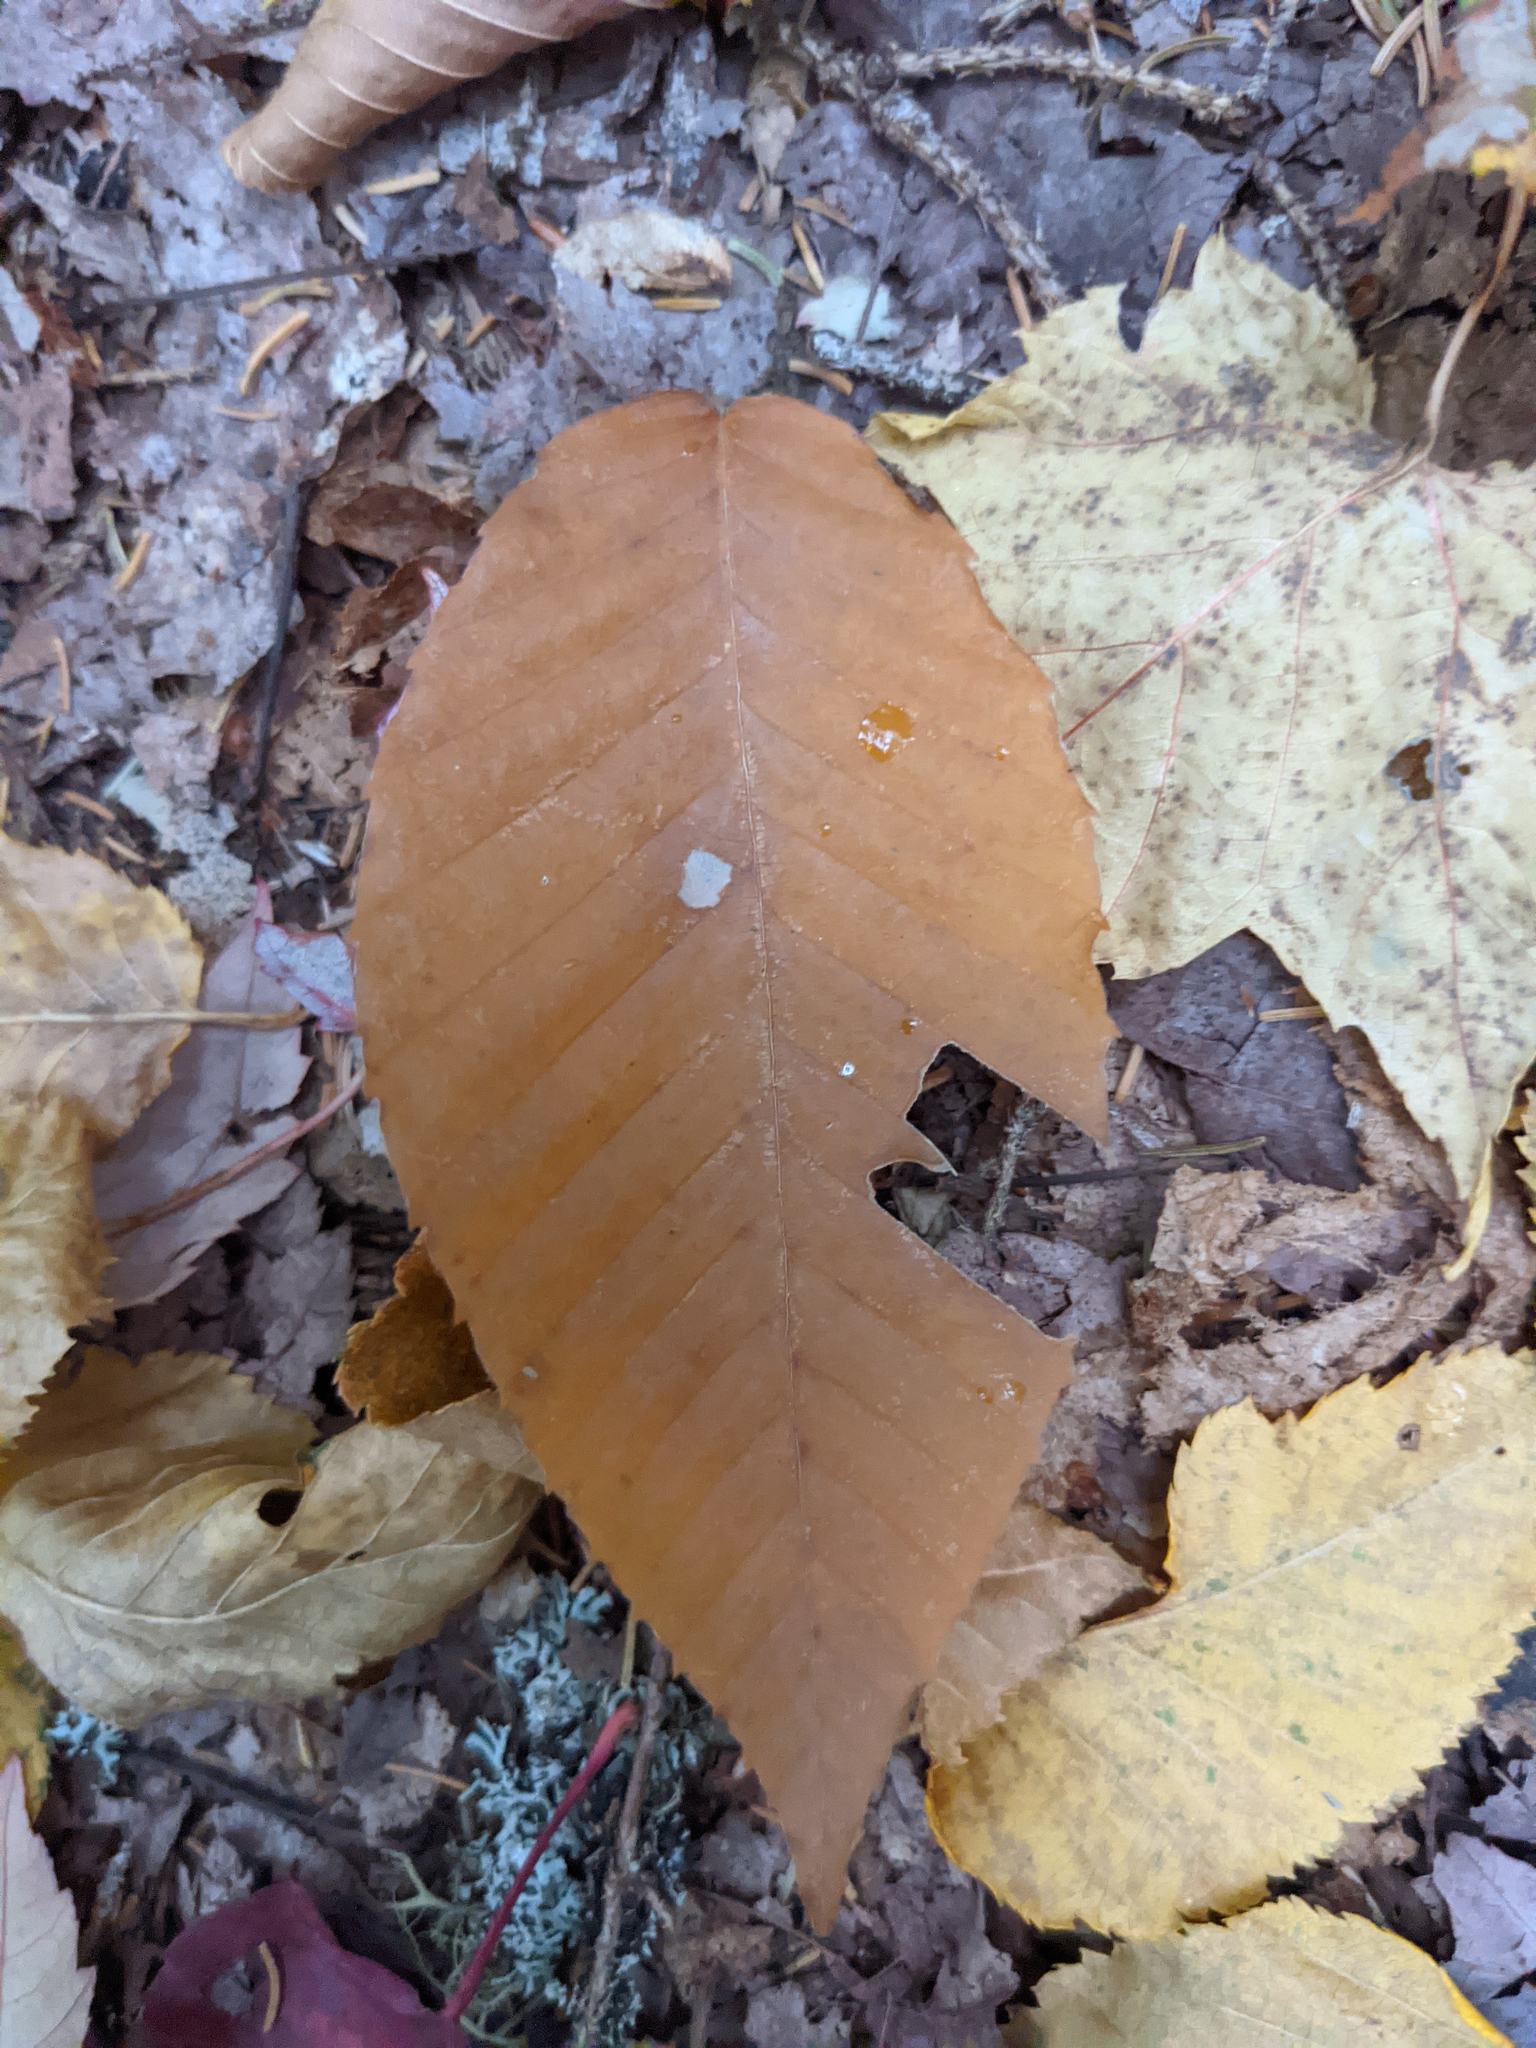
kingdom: Plantae
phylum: Tracheophyta
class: Magnoliopsida
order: Fagales
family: Fagaceae
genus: Fagus
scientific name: Fagus grandifolia
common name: American beech
